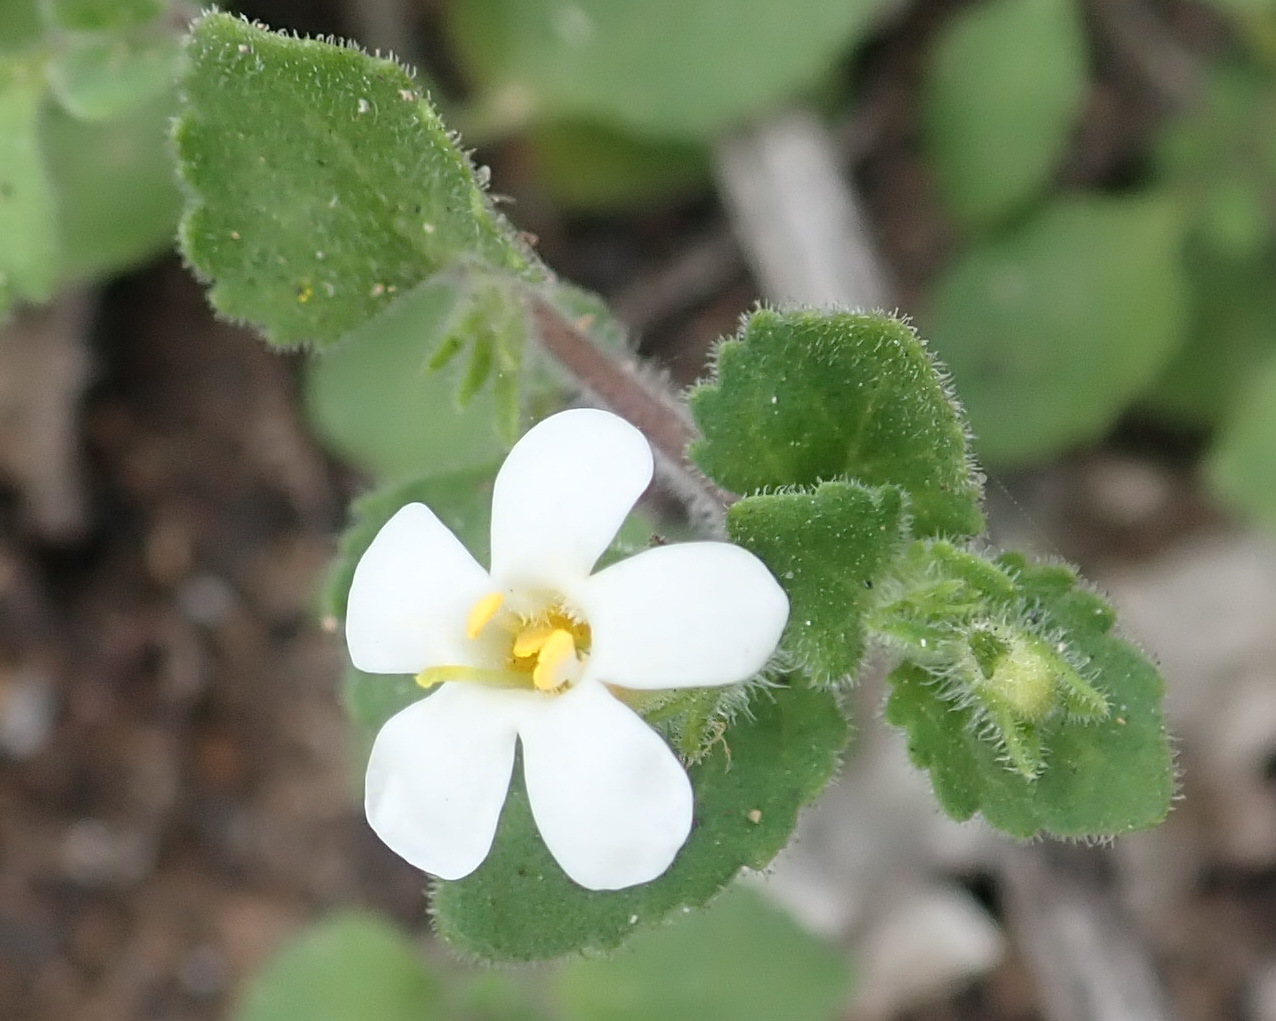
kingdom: Plantae
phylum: Tracheophyta
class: Magnoliopsida
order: Lamiales
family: Scrophulariaceae
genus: Chaenostoma
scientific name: Chaenostoma campanulatum
